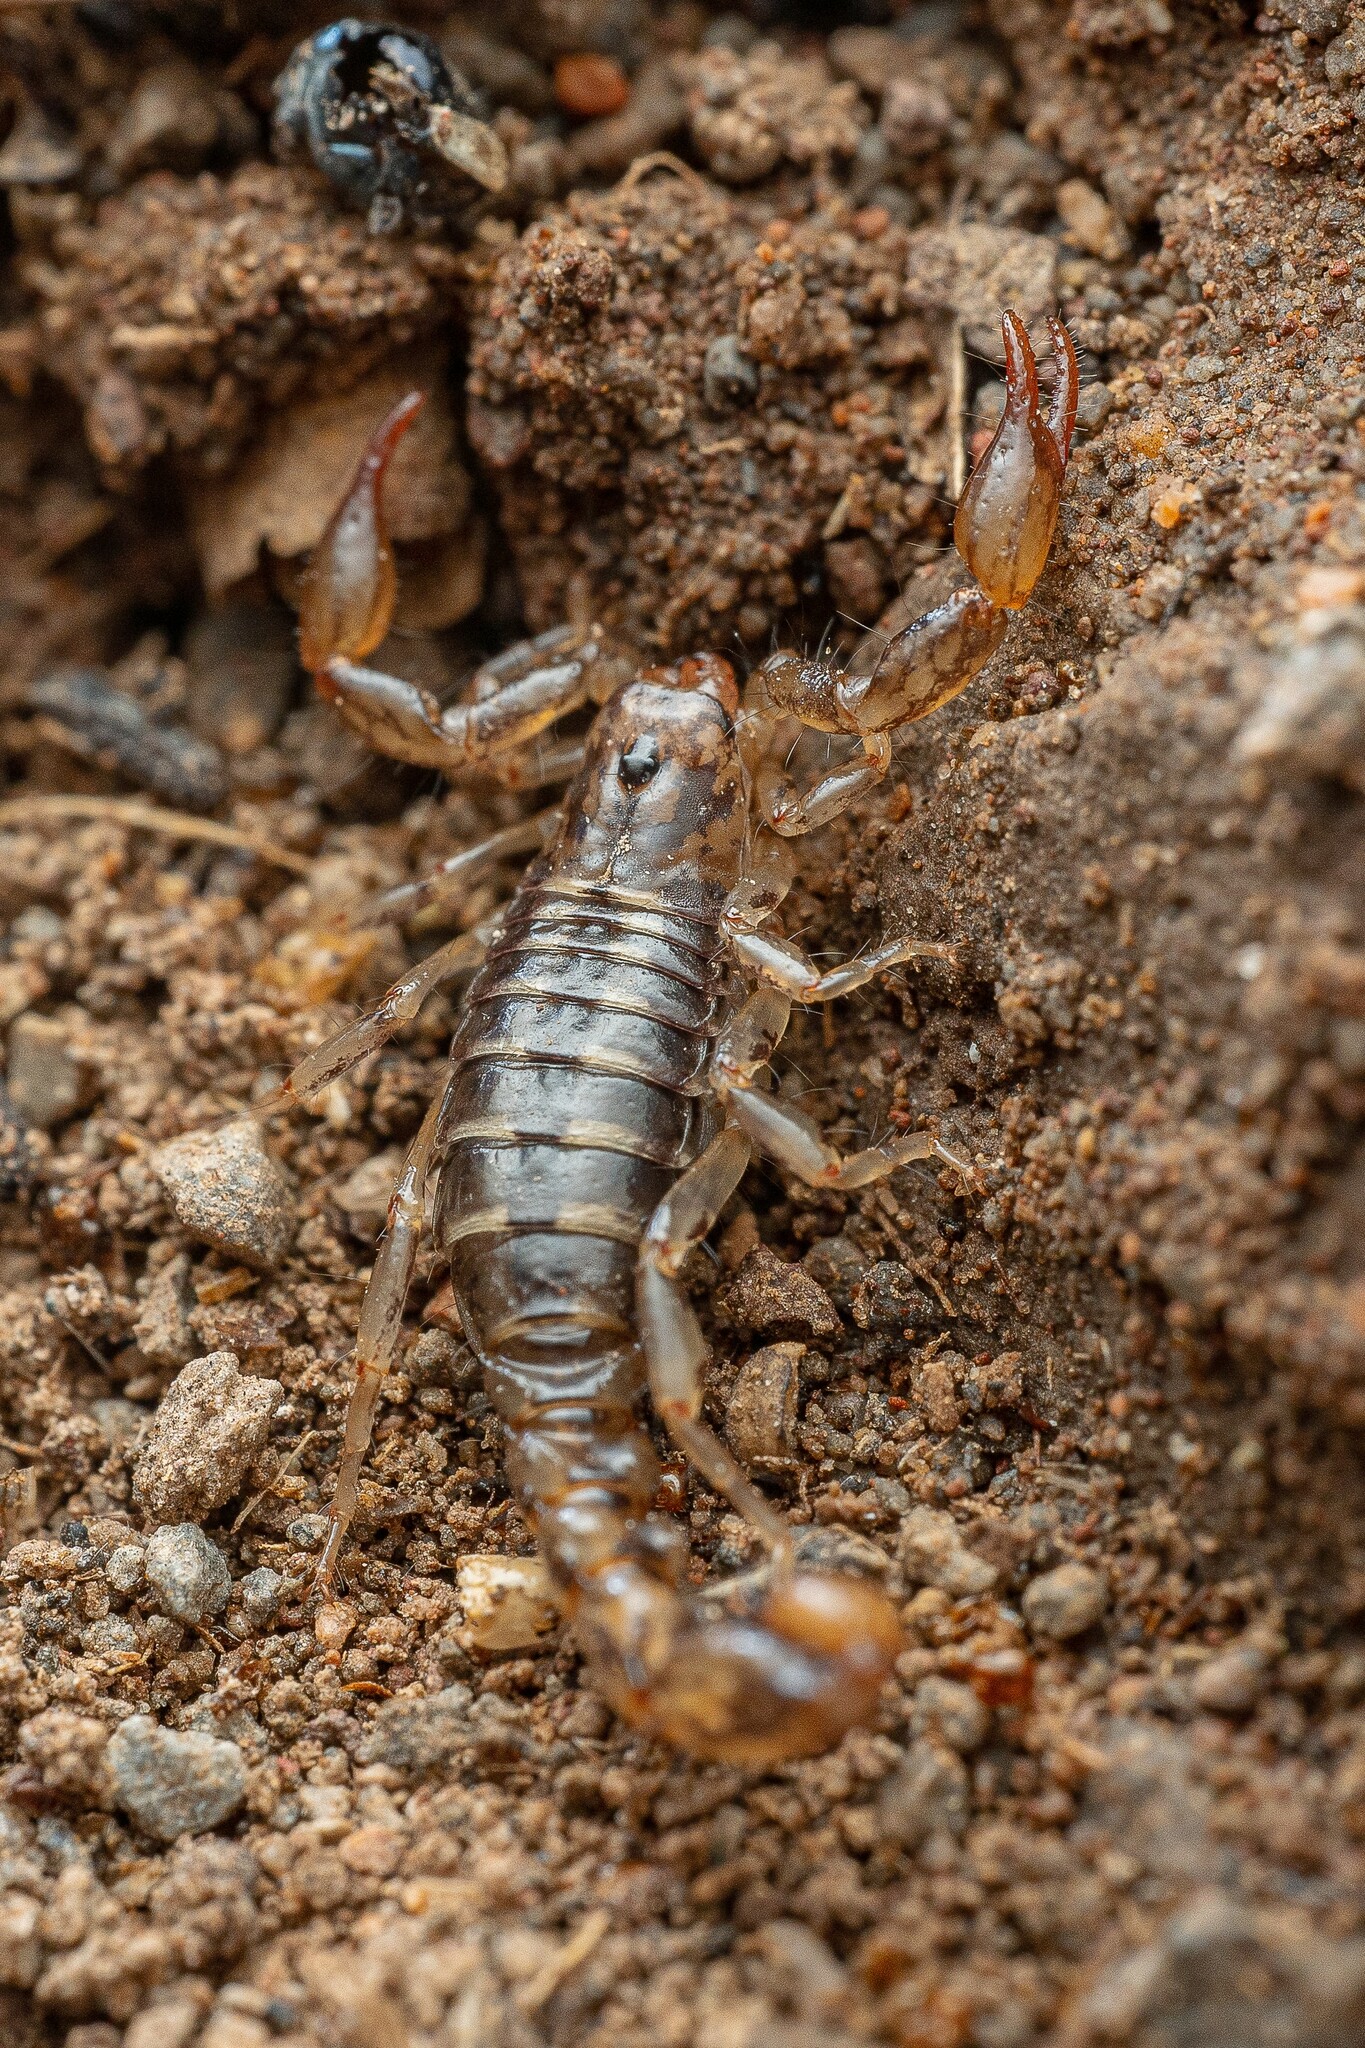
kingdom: Animalia
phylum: Arthropoda
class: Arachnida
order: Scorpiones
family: Superstitioniidae
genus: Superstitionia
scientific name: Superstitionia donensis
